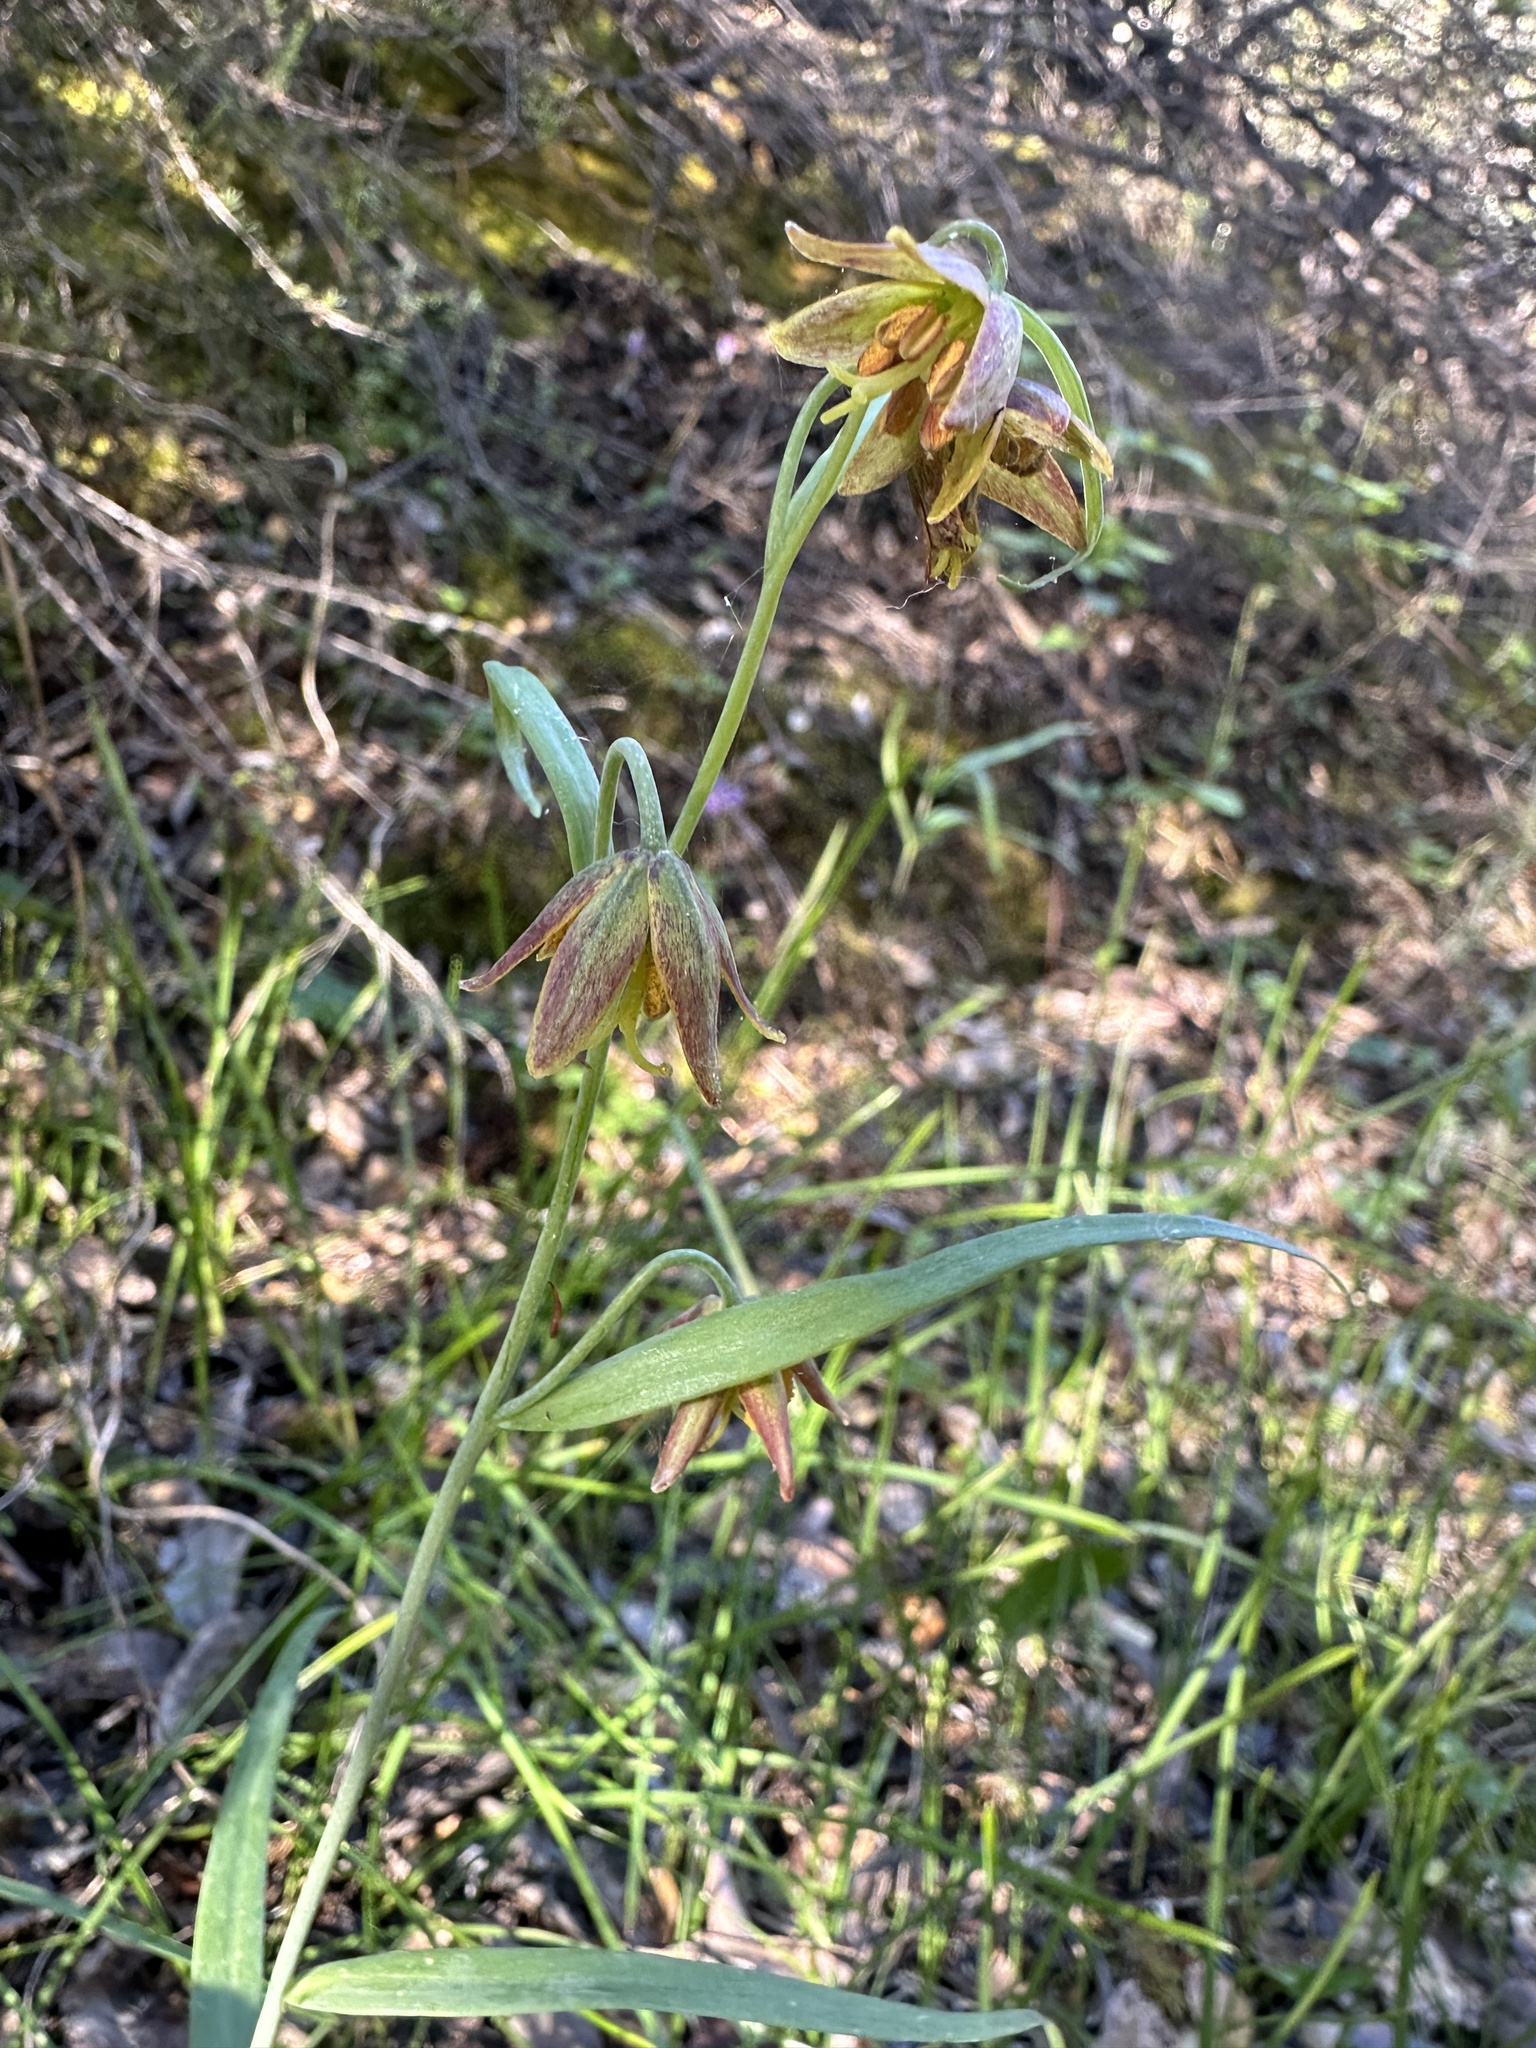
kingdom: Plantae
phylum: Tracheophyta
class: Liliopsida
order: Liliales
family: Liliaceae
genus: Fritillaria
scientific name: Fritillaria micrantha
